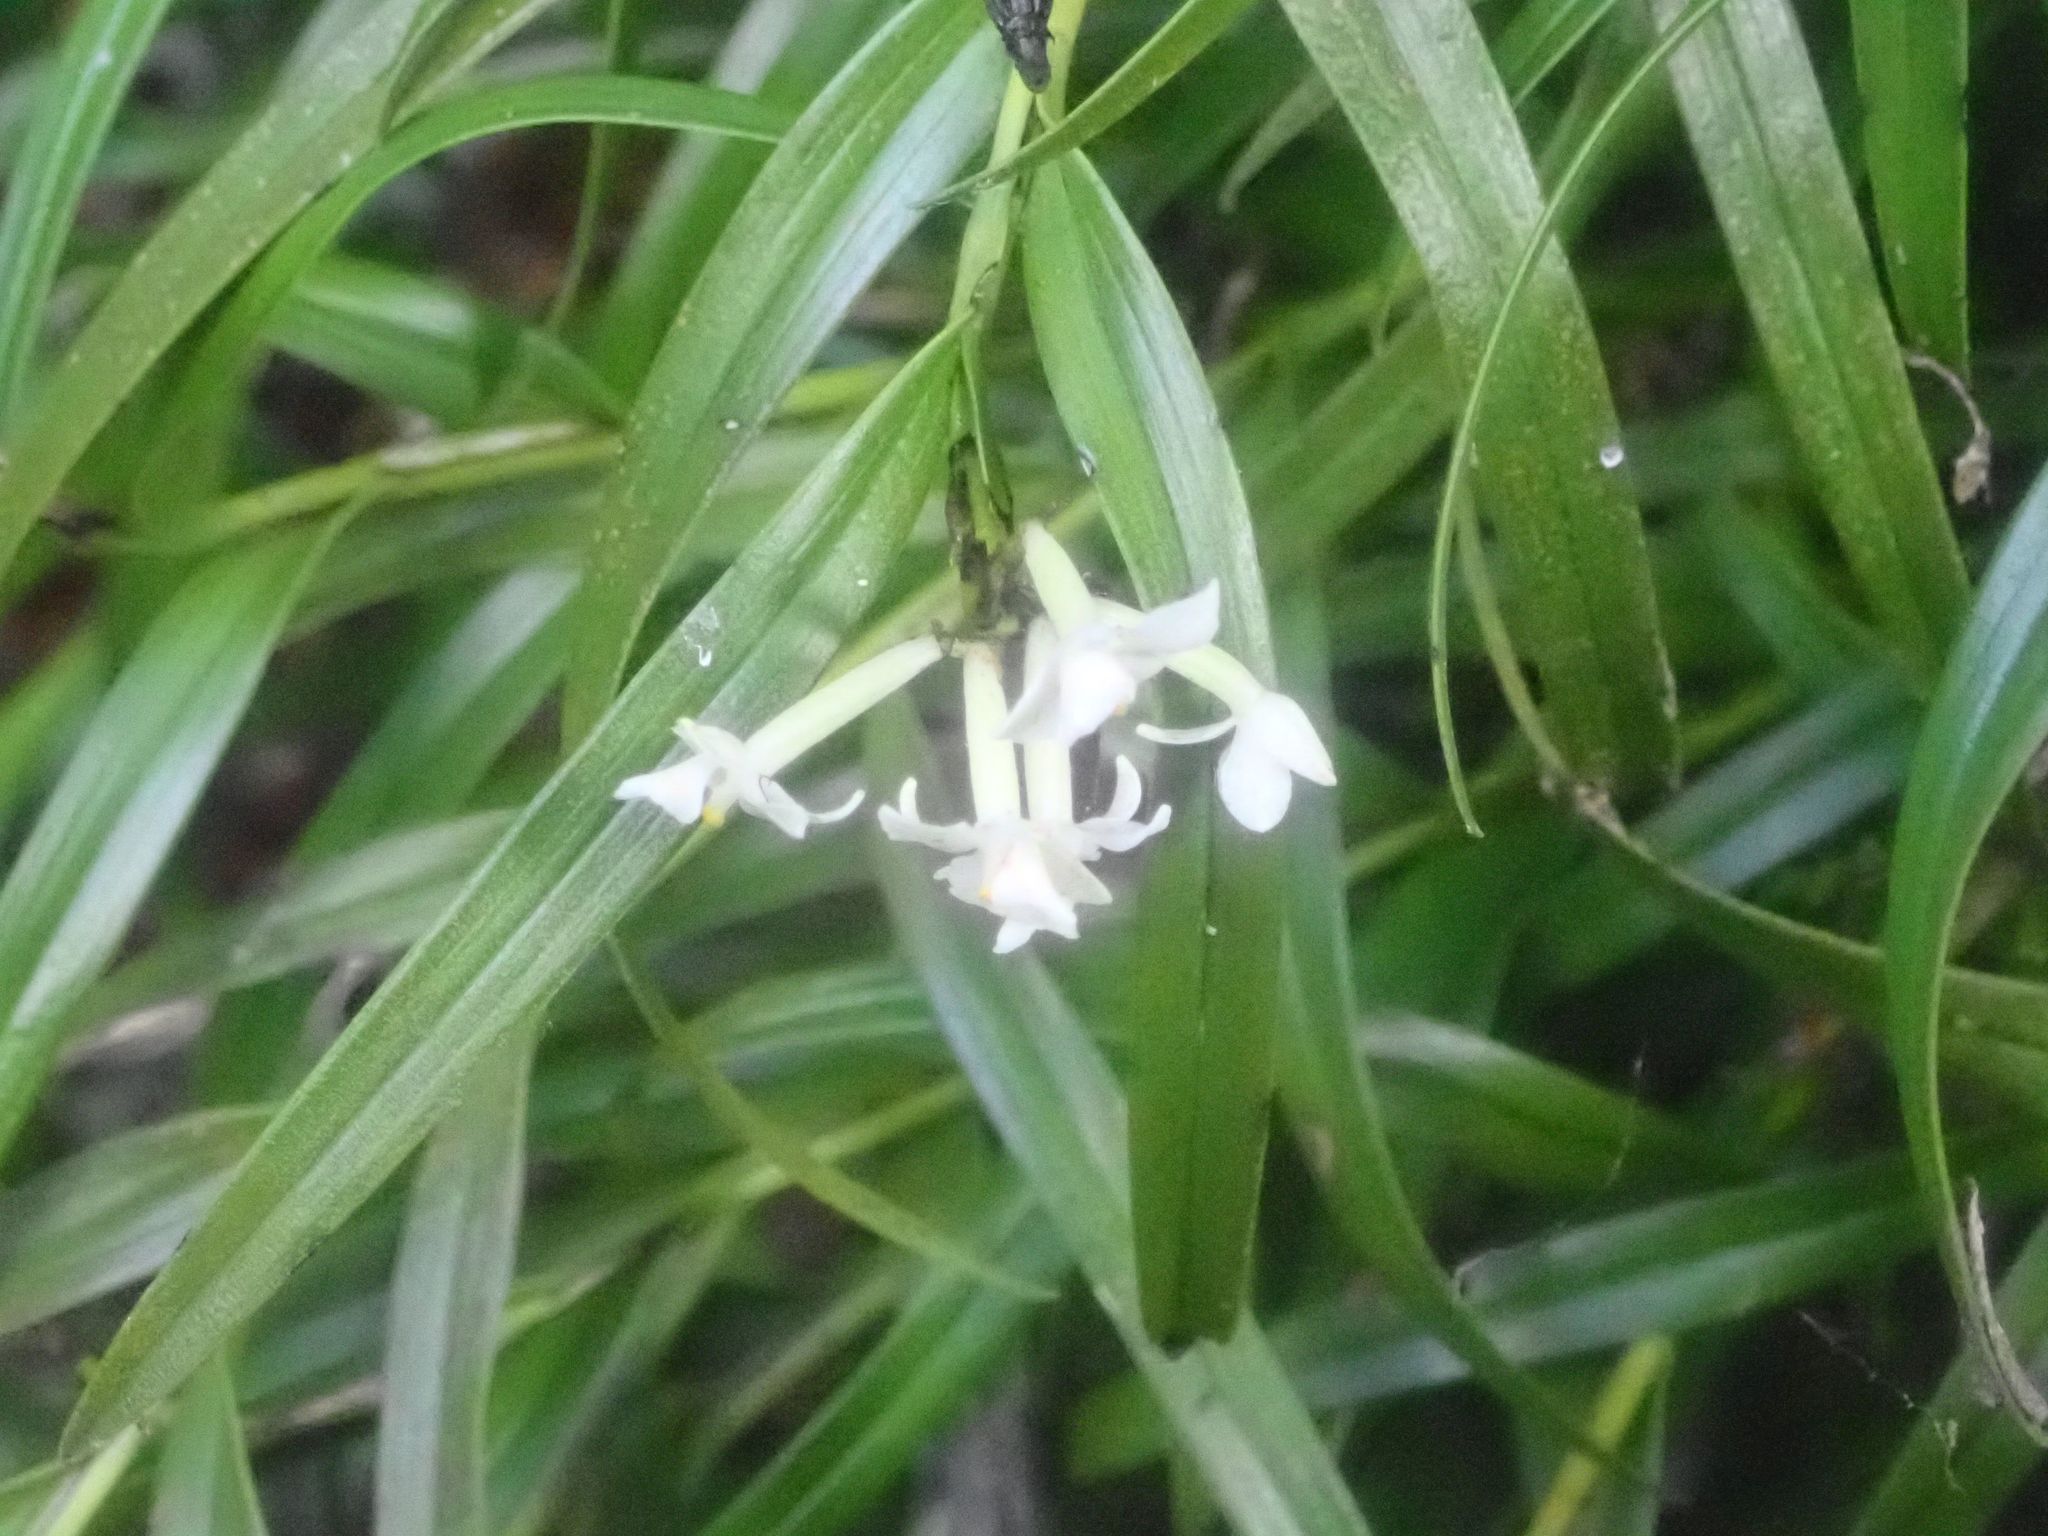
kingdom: Plantae
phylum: Tracheophyta
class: Liliopsida
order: Asparagales
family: Orchidaceae
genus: Earina
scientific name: Earina autumnalis
